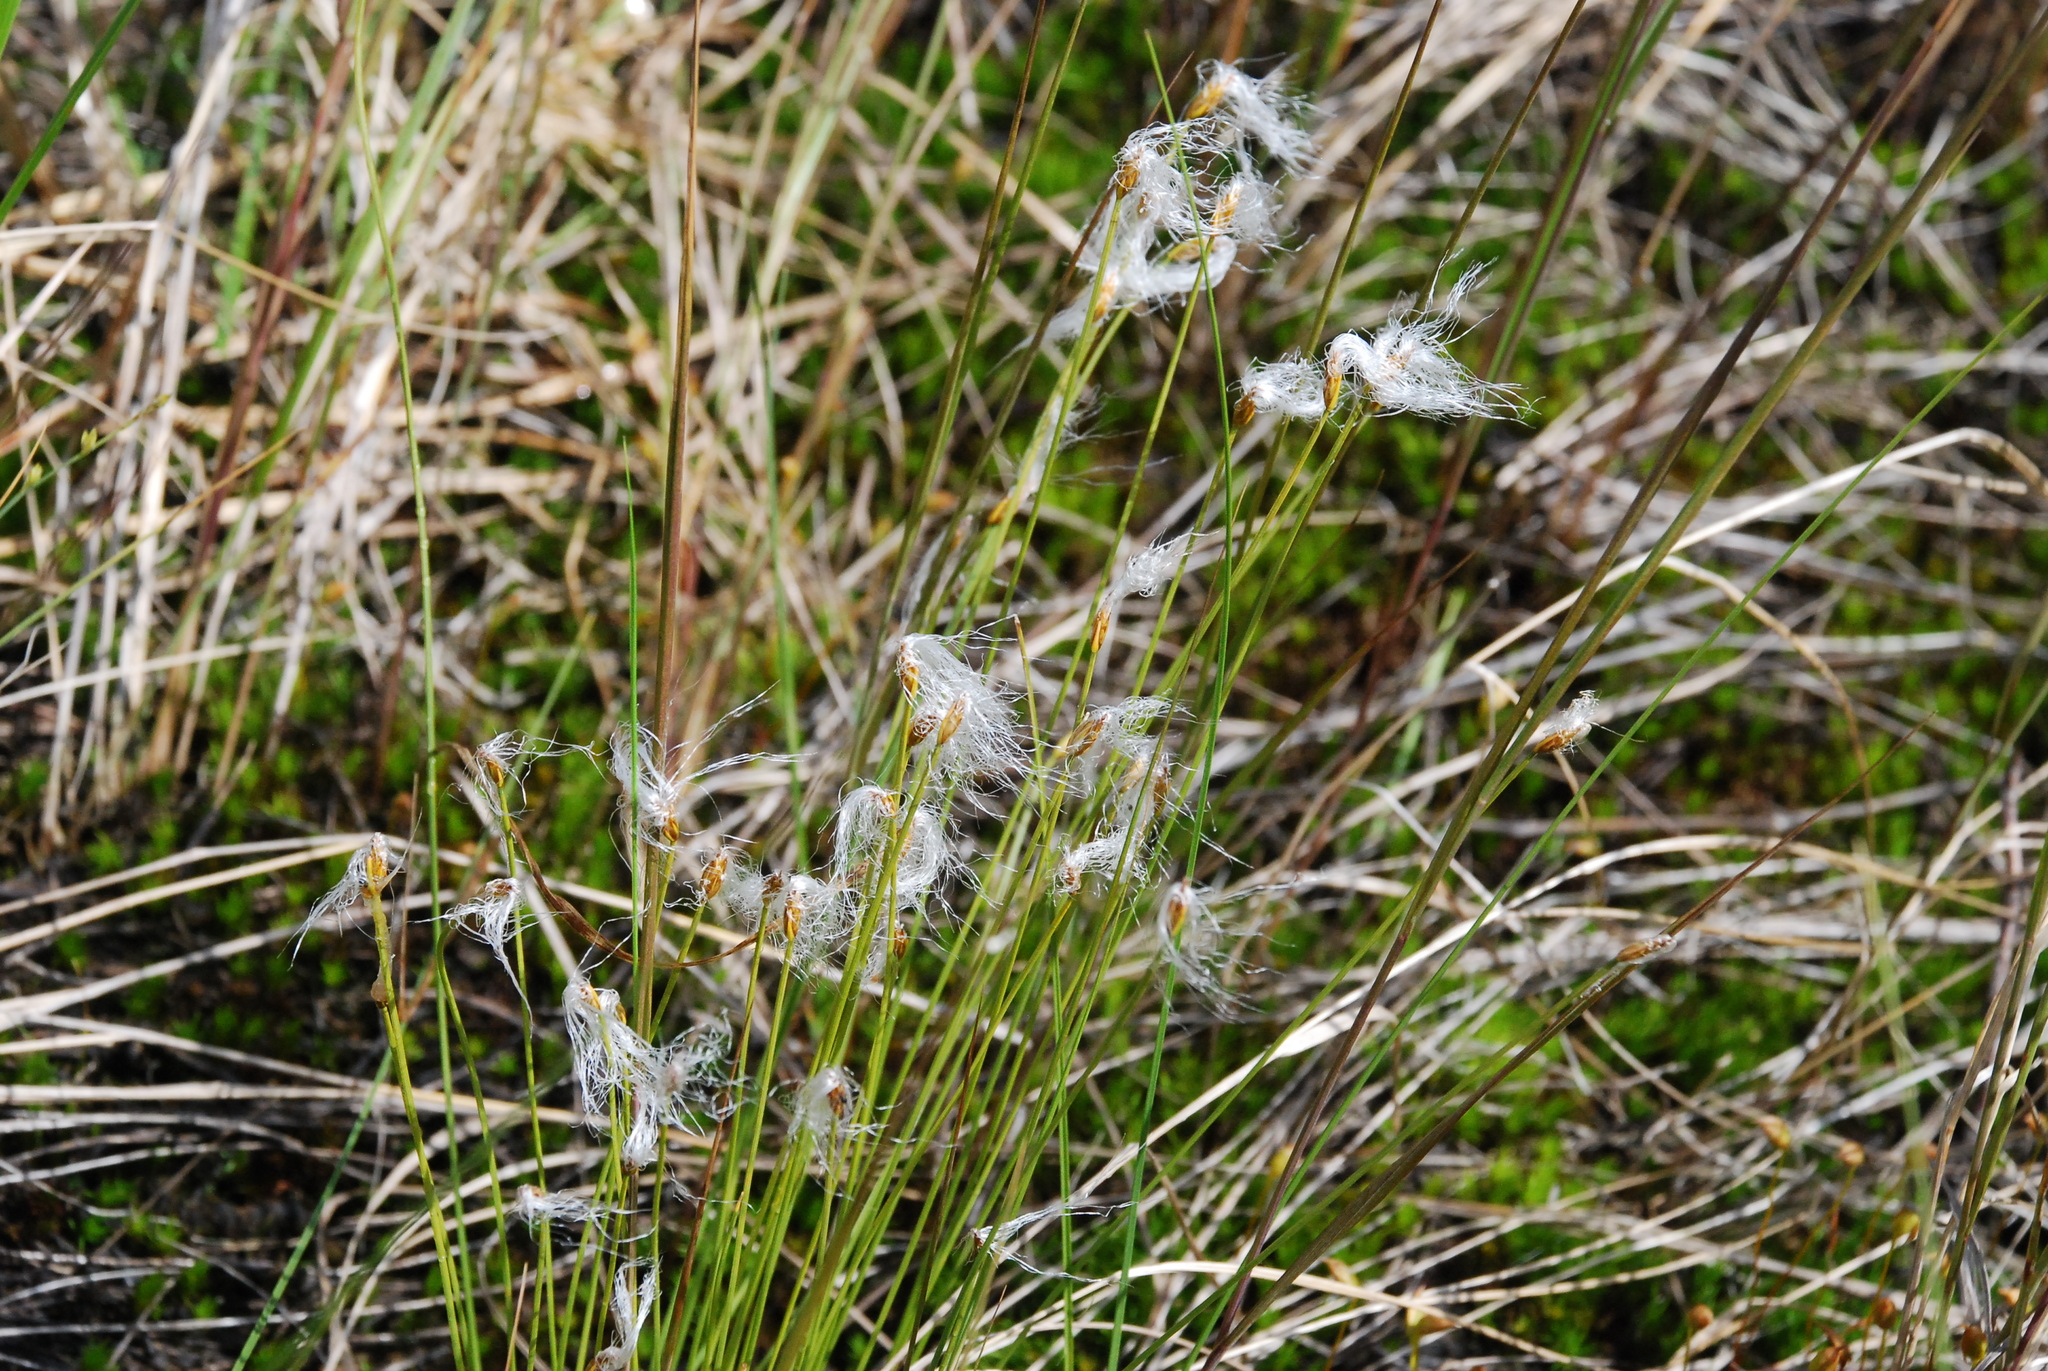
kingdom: Plantae
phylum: Tracheophyta
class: Liliopsida
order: Poales
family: Cyperaceae
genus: Trichophorum
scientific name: Trichophorum alpinum
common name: Alpine bulrush
